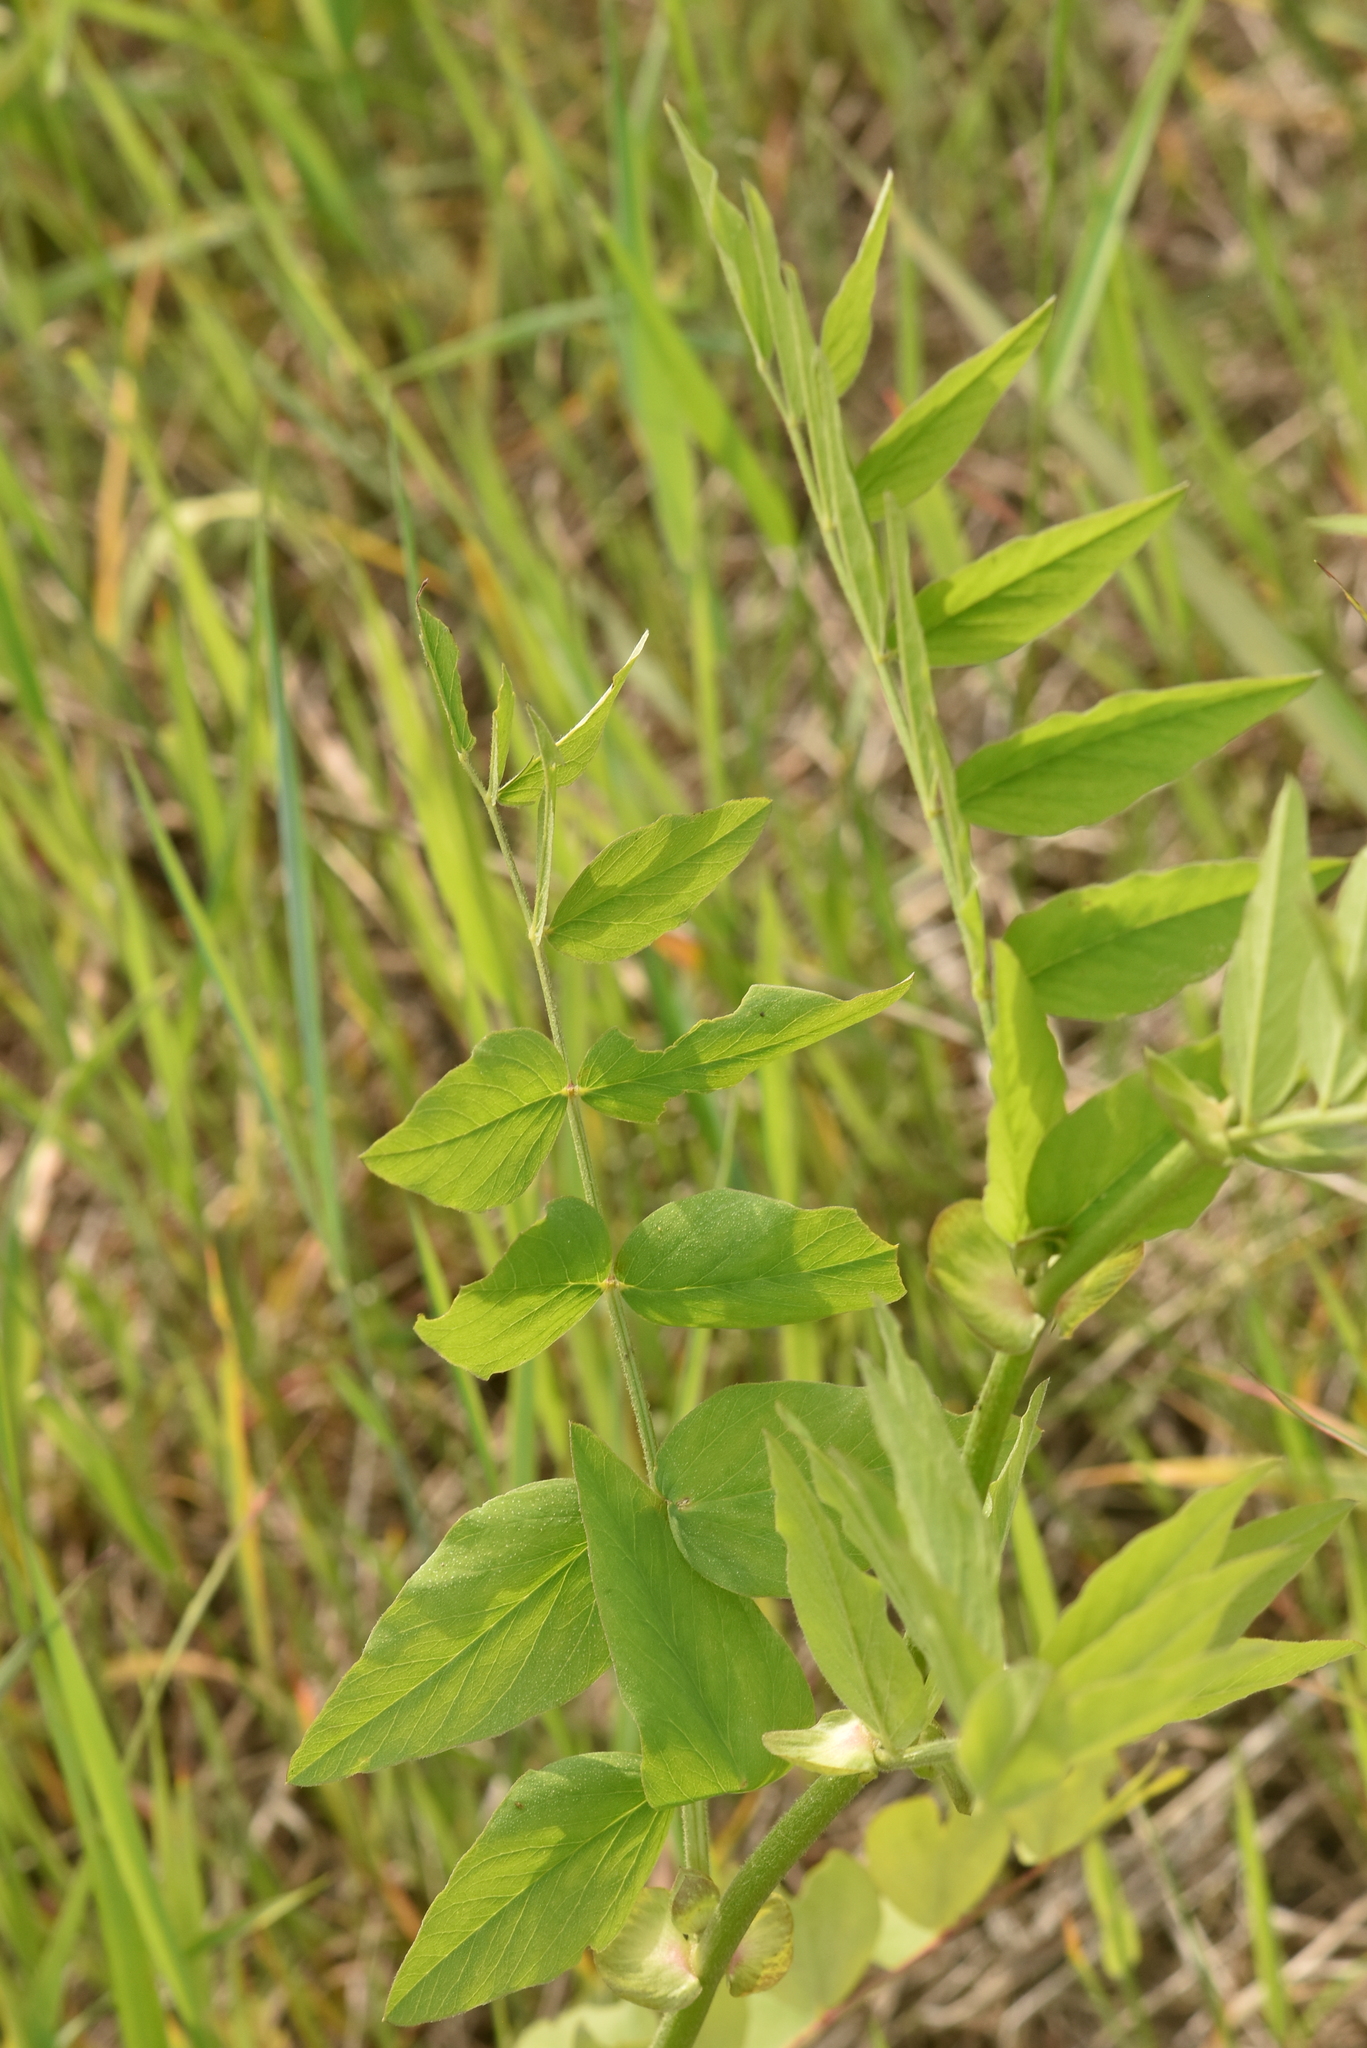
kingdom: Plantae
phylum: Tracheophyta
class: Magnoliopsida
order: Fabales
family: Fabaceae
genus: Galega
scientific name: Galega orientalis
